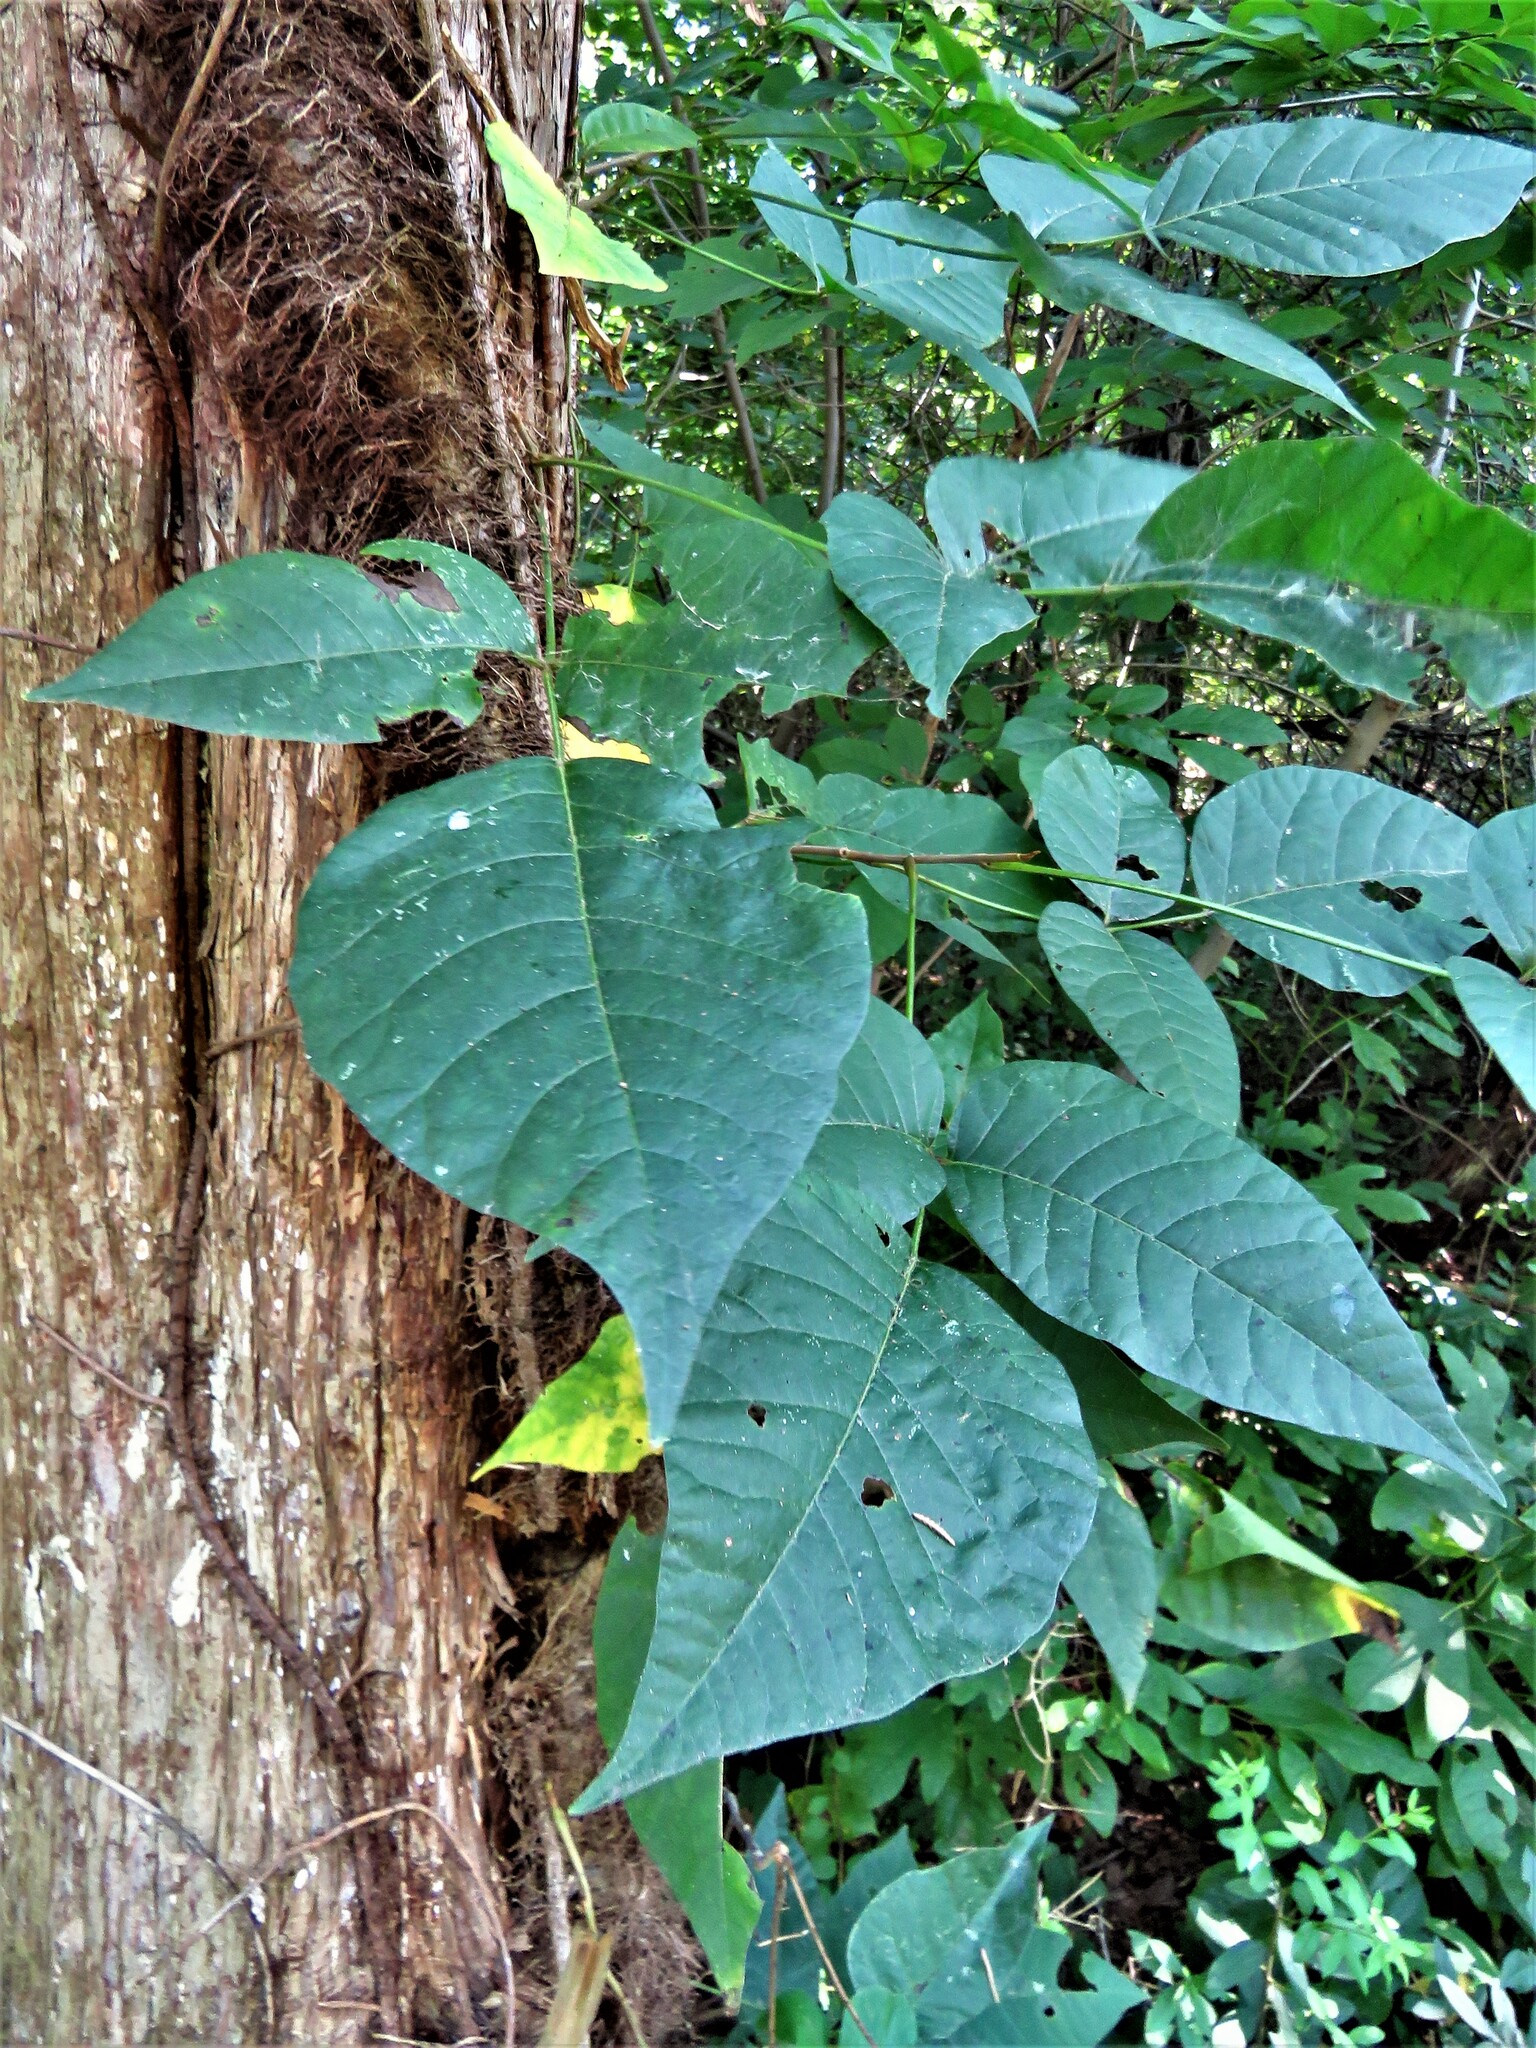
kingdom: Plantae
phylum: Tracheophyta
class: Magnoliopsida
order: Sapindales
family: Anacardiaceae
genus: Toxicodendron
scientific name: Toxicodendron radicans
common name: Poison ivy
